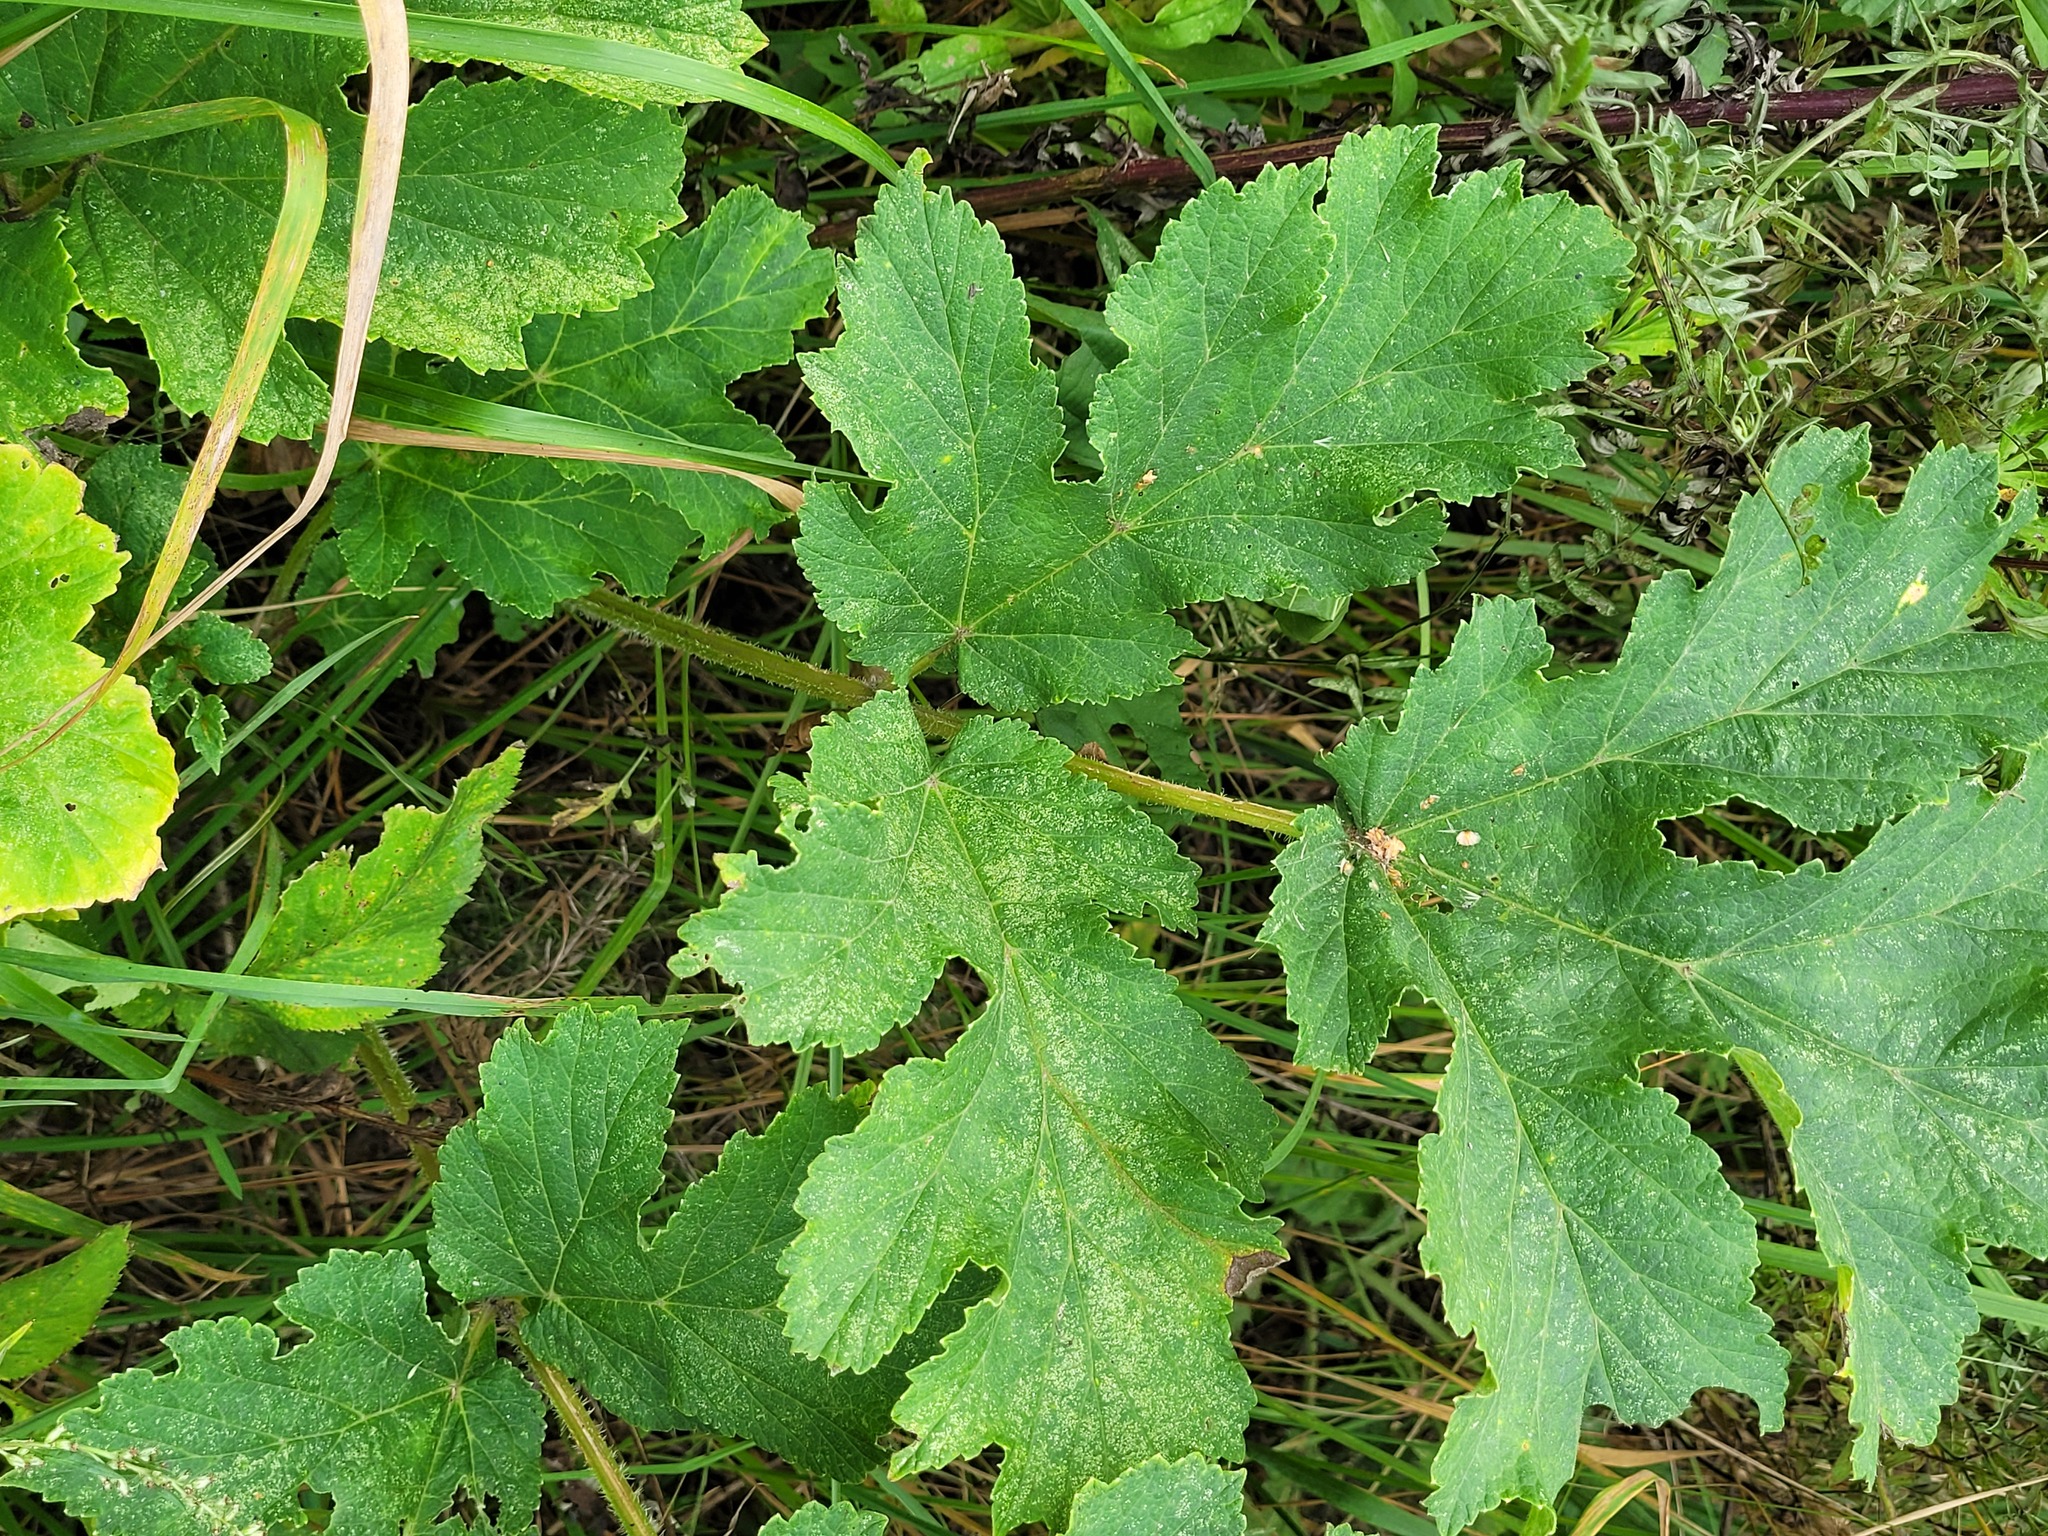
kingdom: Plantae
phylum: Tracheophyta
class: Magnoliopsida
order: Apiales
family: Apiaceae
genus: Heracleum
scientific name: Heracleum sphondylium
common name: Hogweed
